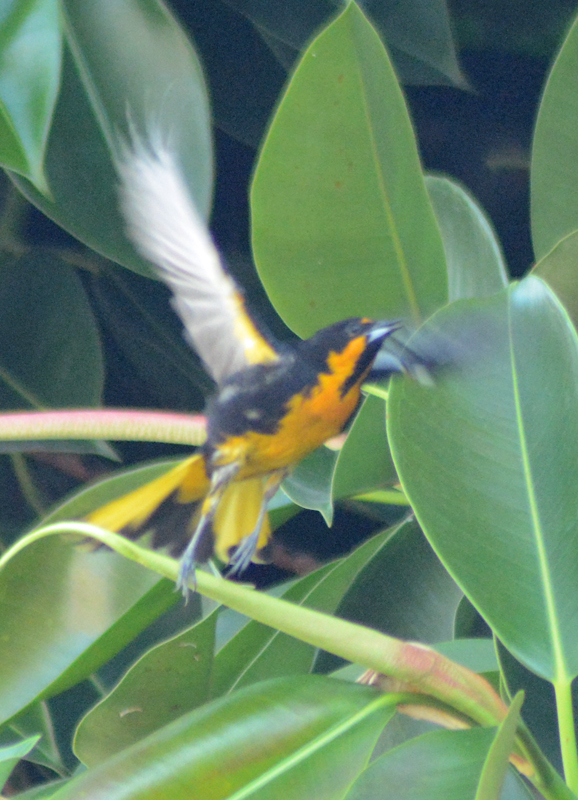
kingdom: Animalia
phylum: Chordata
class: Aves
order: Passeriformes
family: Icteridae
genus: Icterus
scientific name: Icterus abeillei
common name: Black-backed oriole
